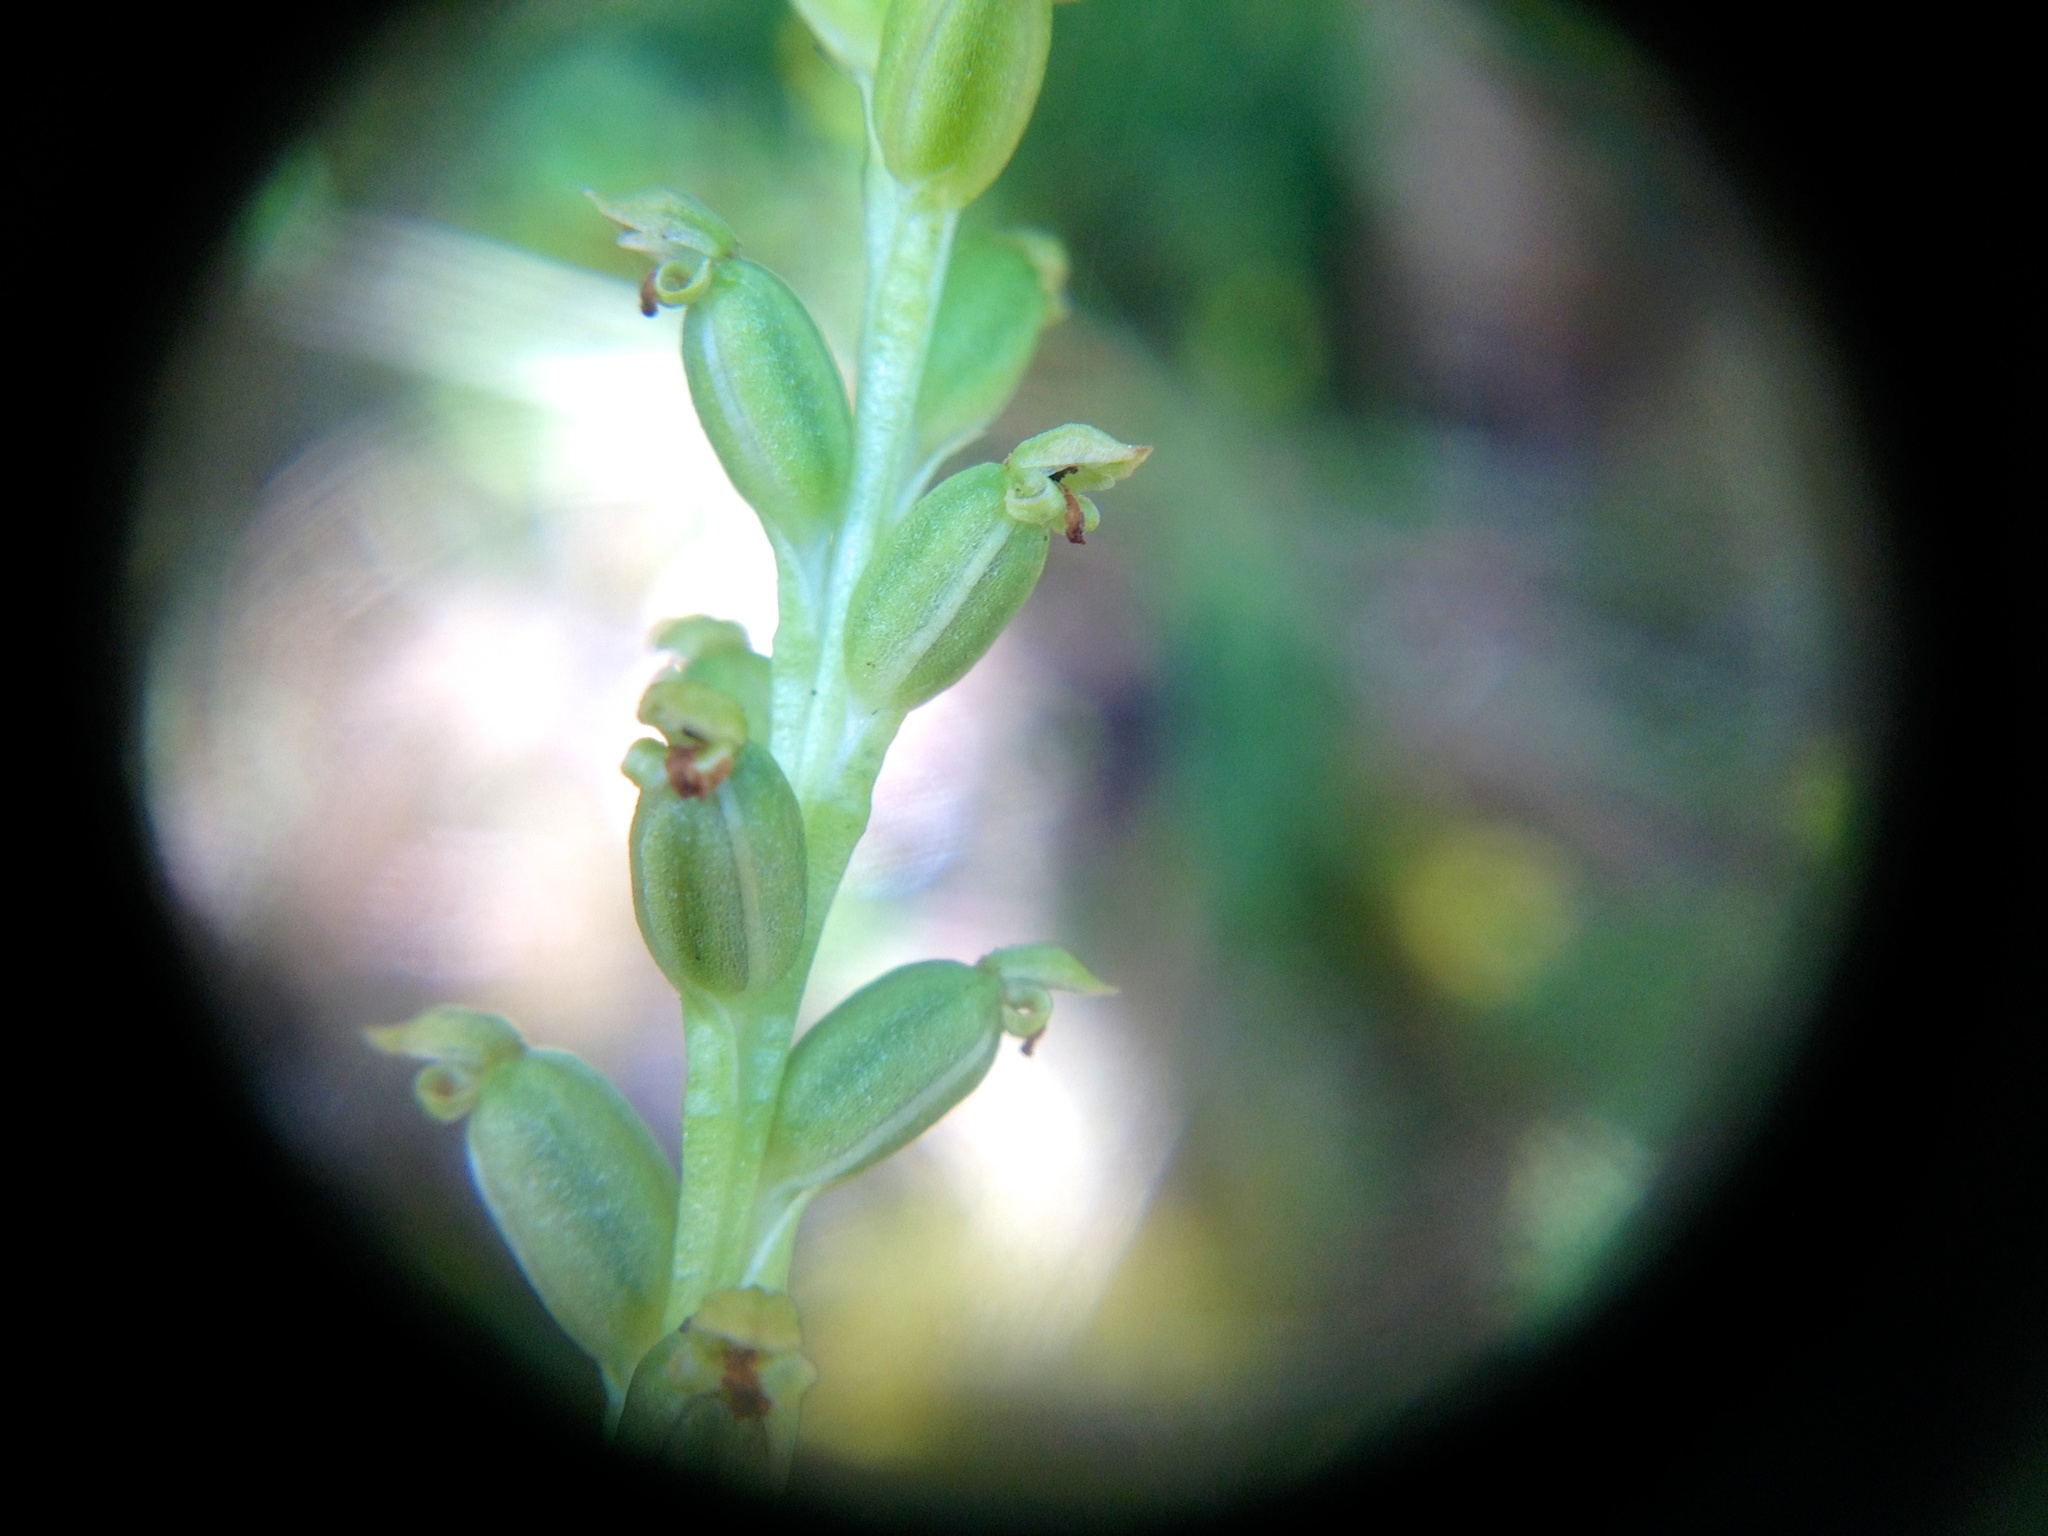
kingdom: Plantae
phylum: Tracheophyta
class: Liliopsida
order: Asparagales
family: Orchidaceae
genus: Microtis
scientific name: Microtis unifolia
